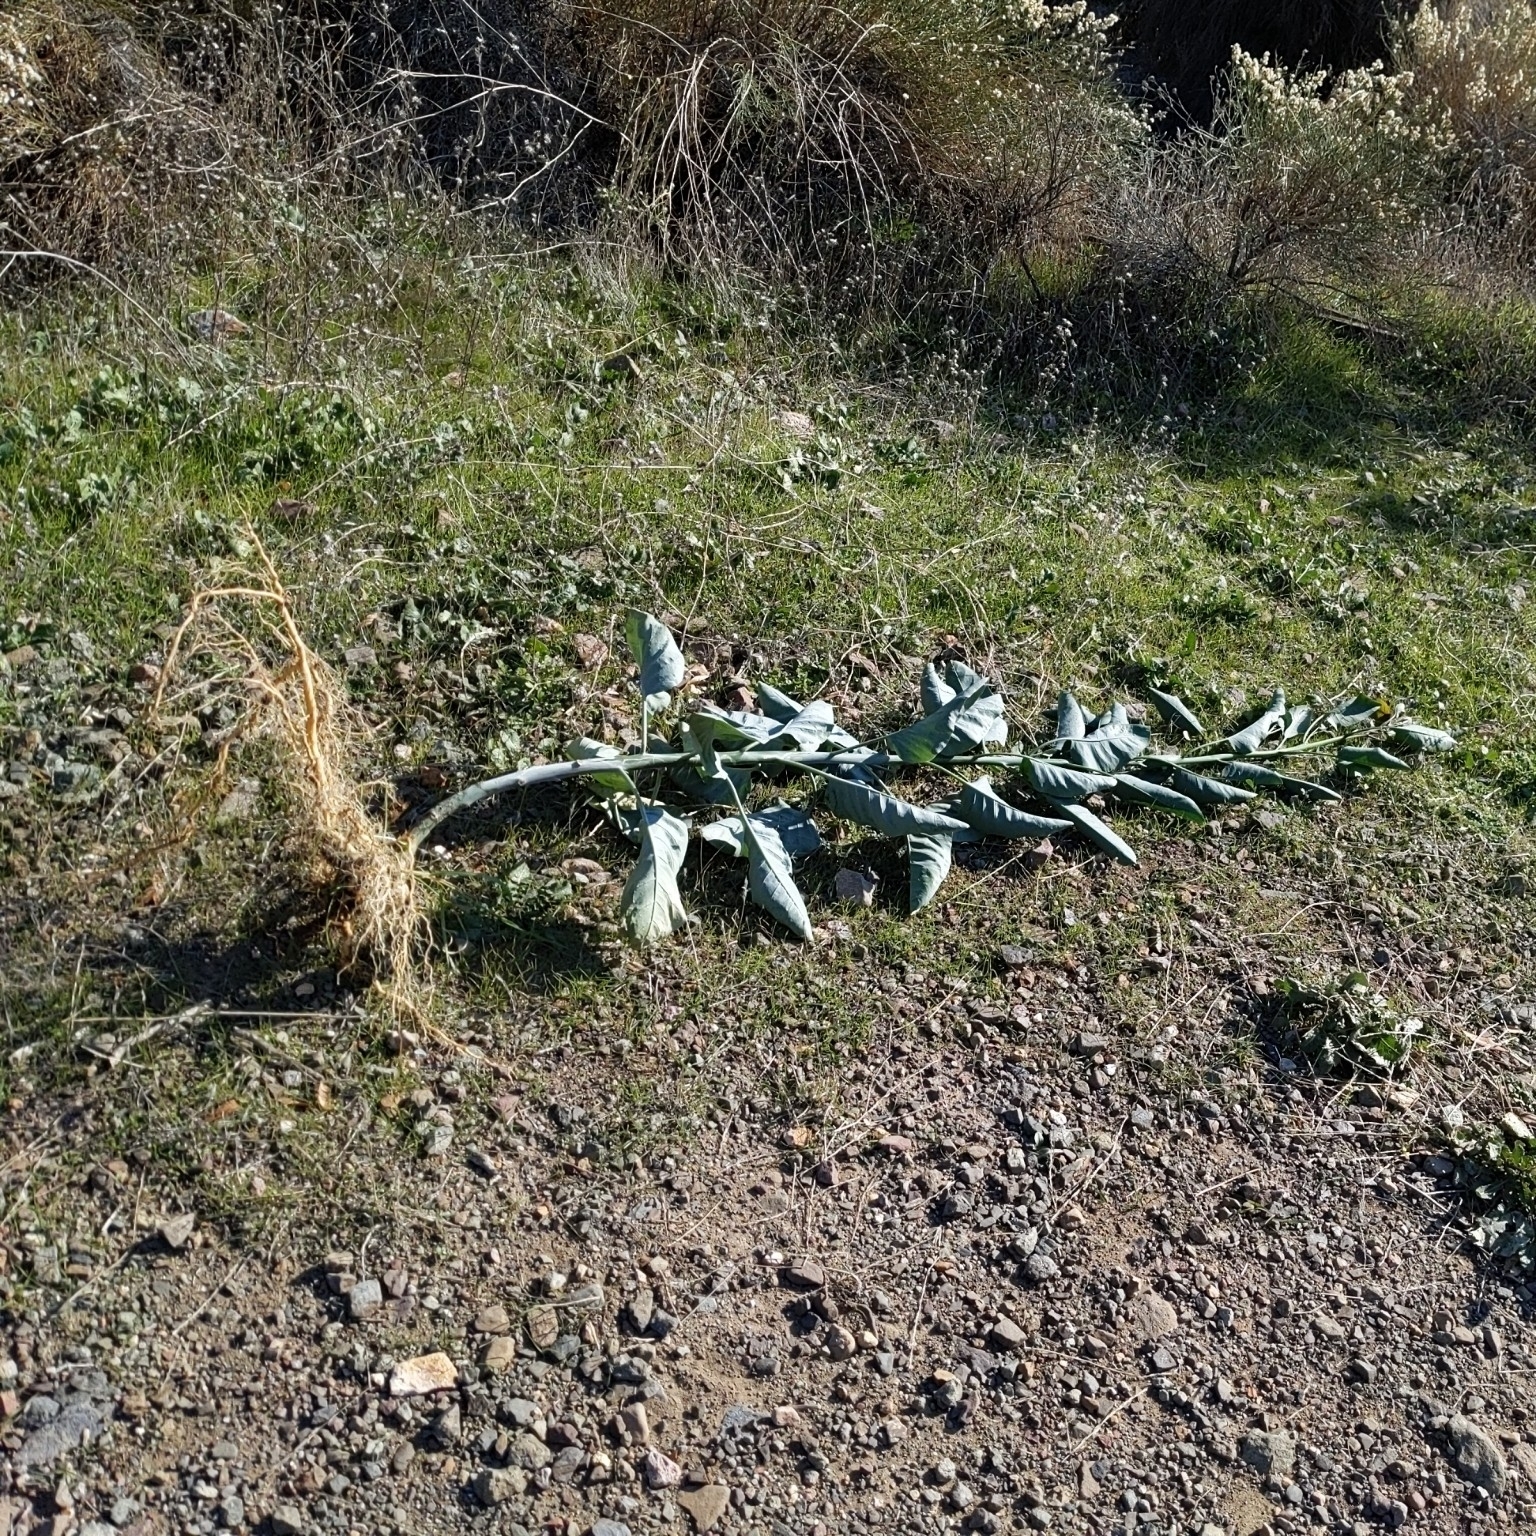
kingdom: Plantae
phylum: Tracheophyta
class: Magnoliopsida
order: Solanales
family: Solanaceae
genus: Nicotiana
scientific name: Nicotiana glauca
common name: Tree tobacco
